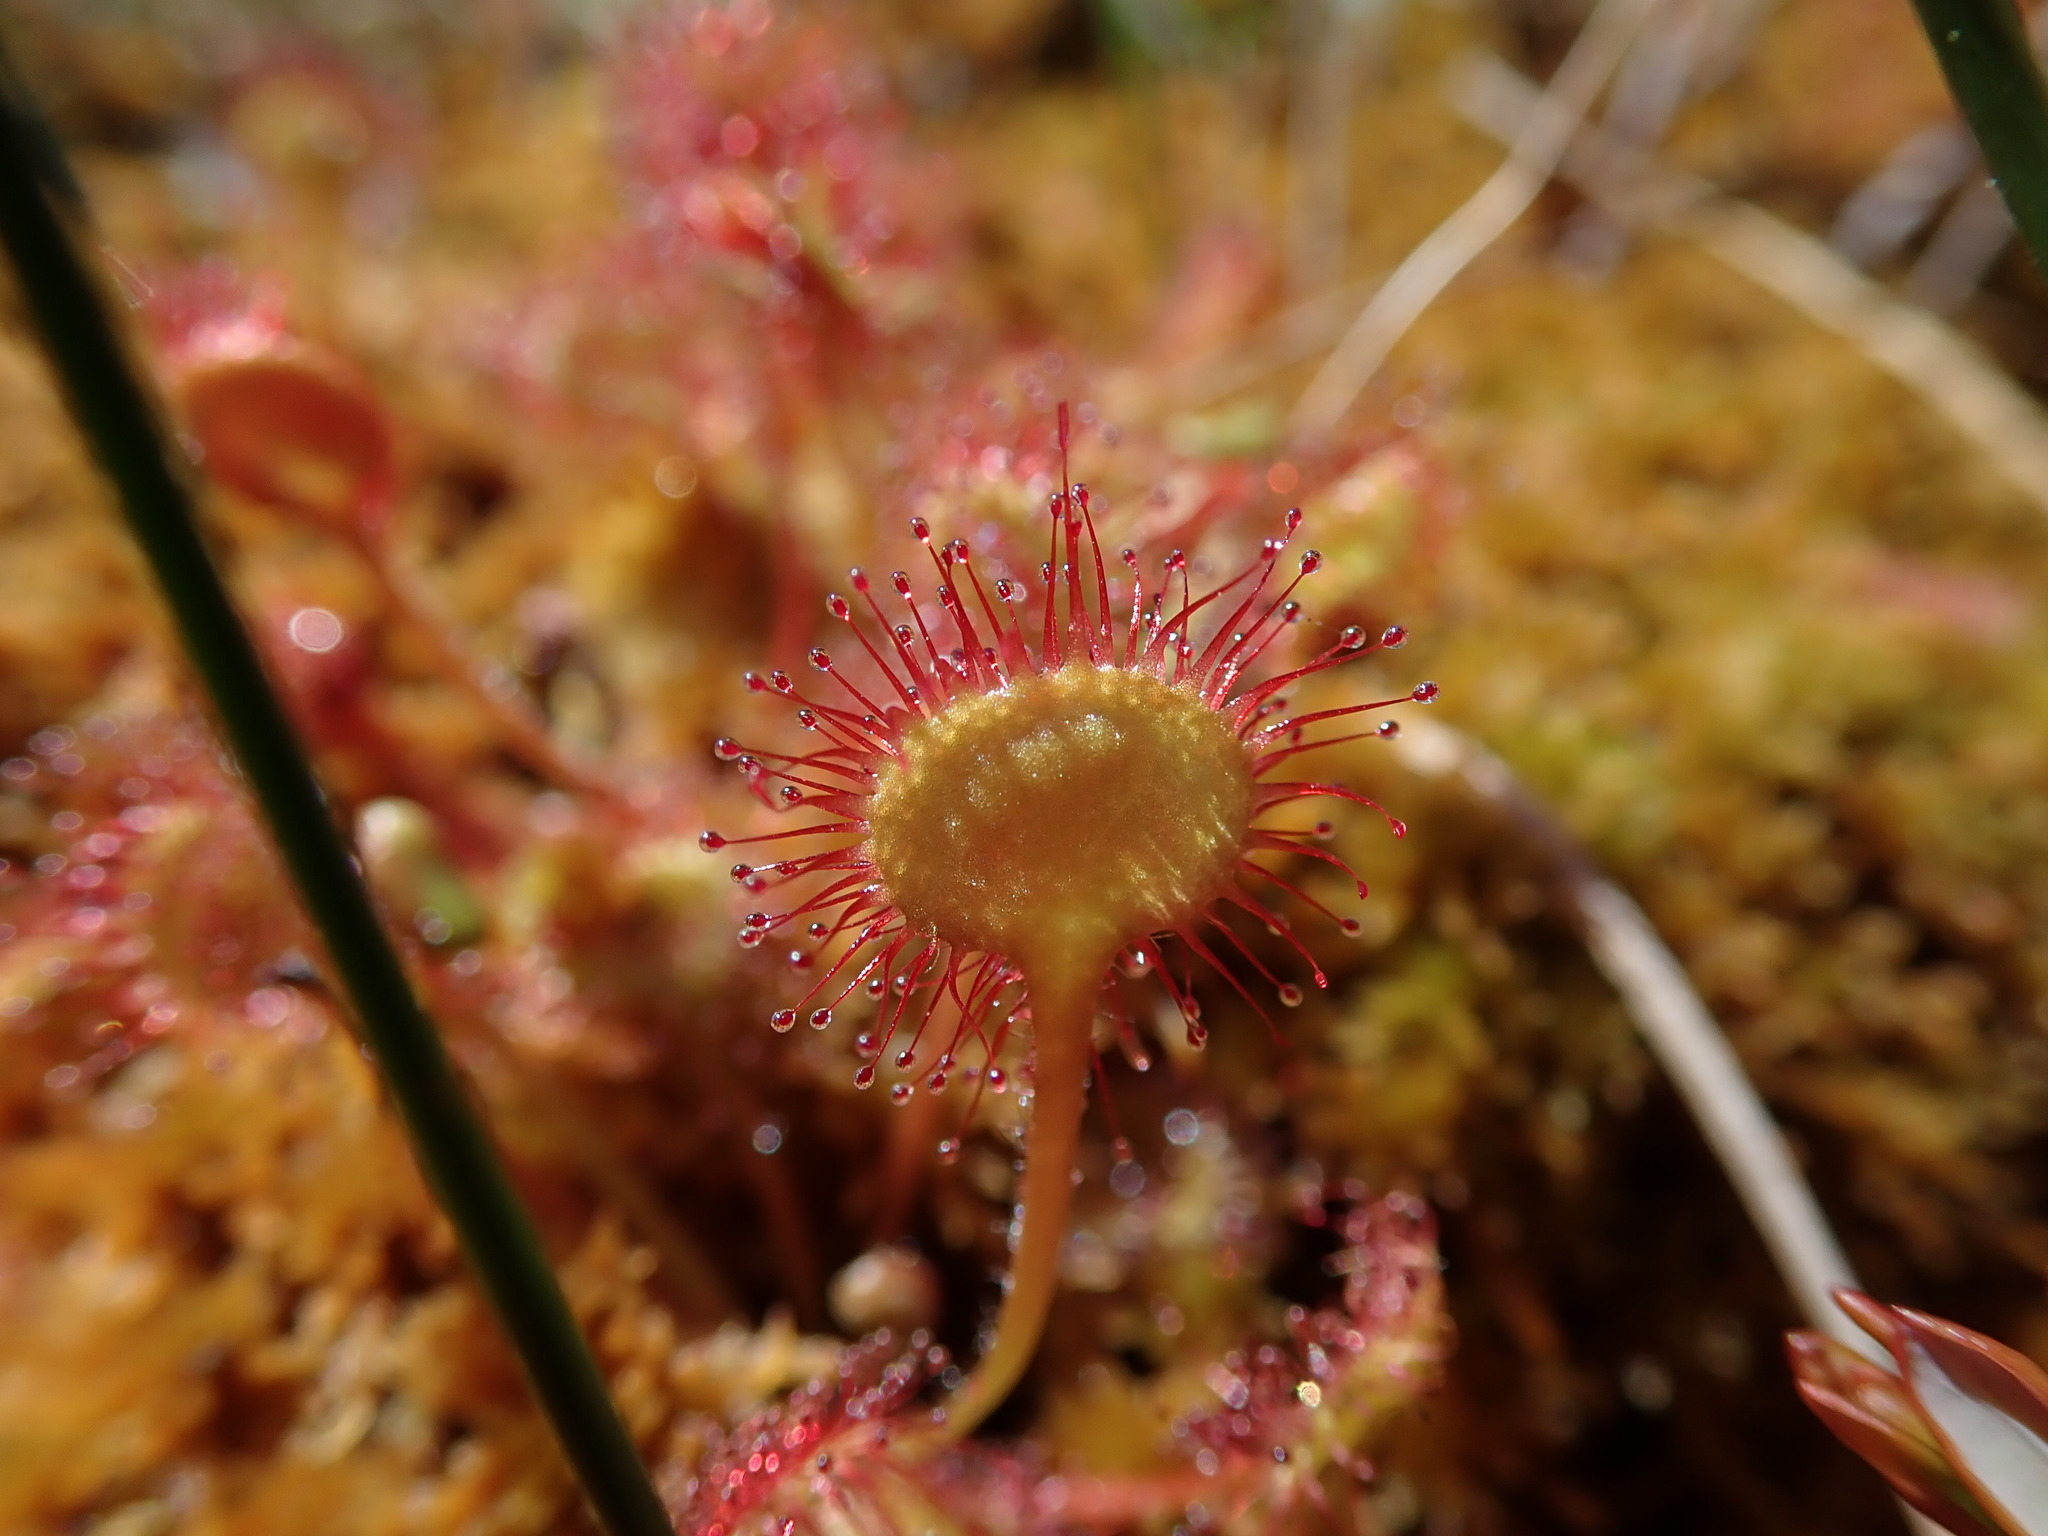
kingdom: Plantae
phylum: Tracheophyta
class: Magnoliopsida
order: Caryophyllales
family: Droseraceae
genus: Drosera
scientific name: Drosera rotundifolia
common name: Round-leaved sundew
